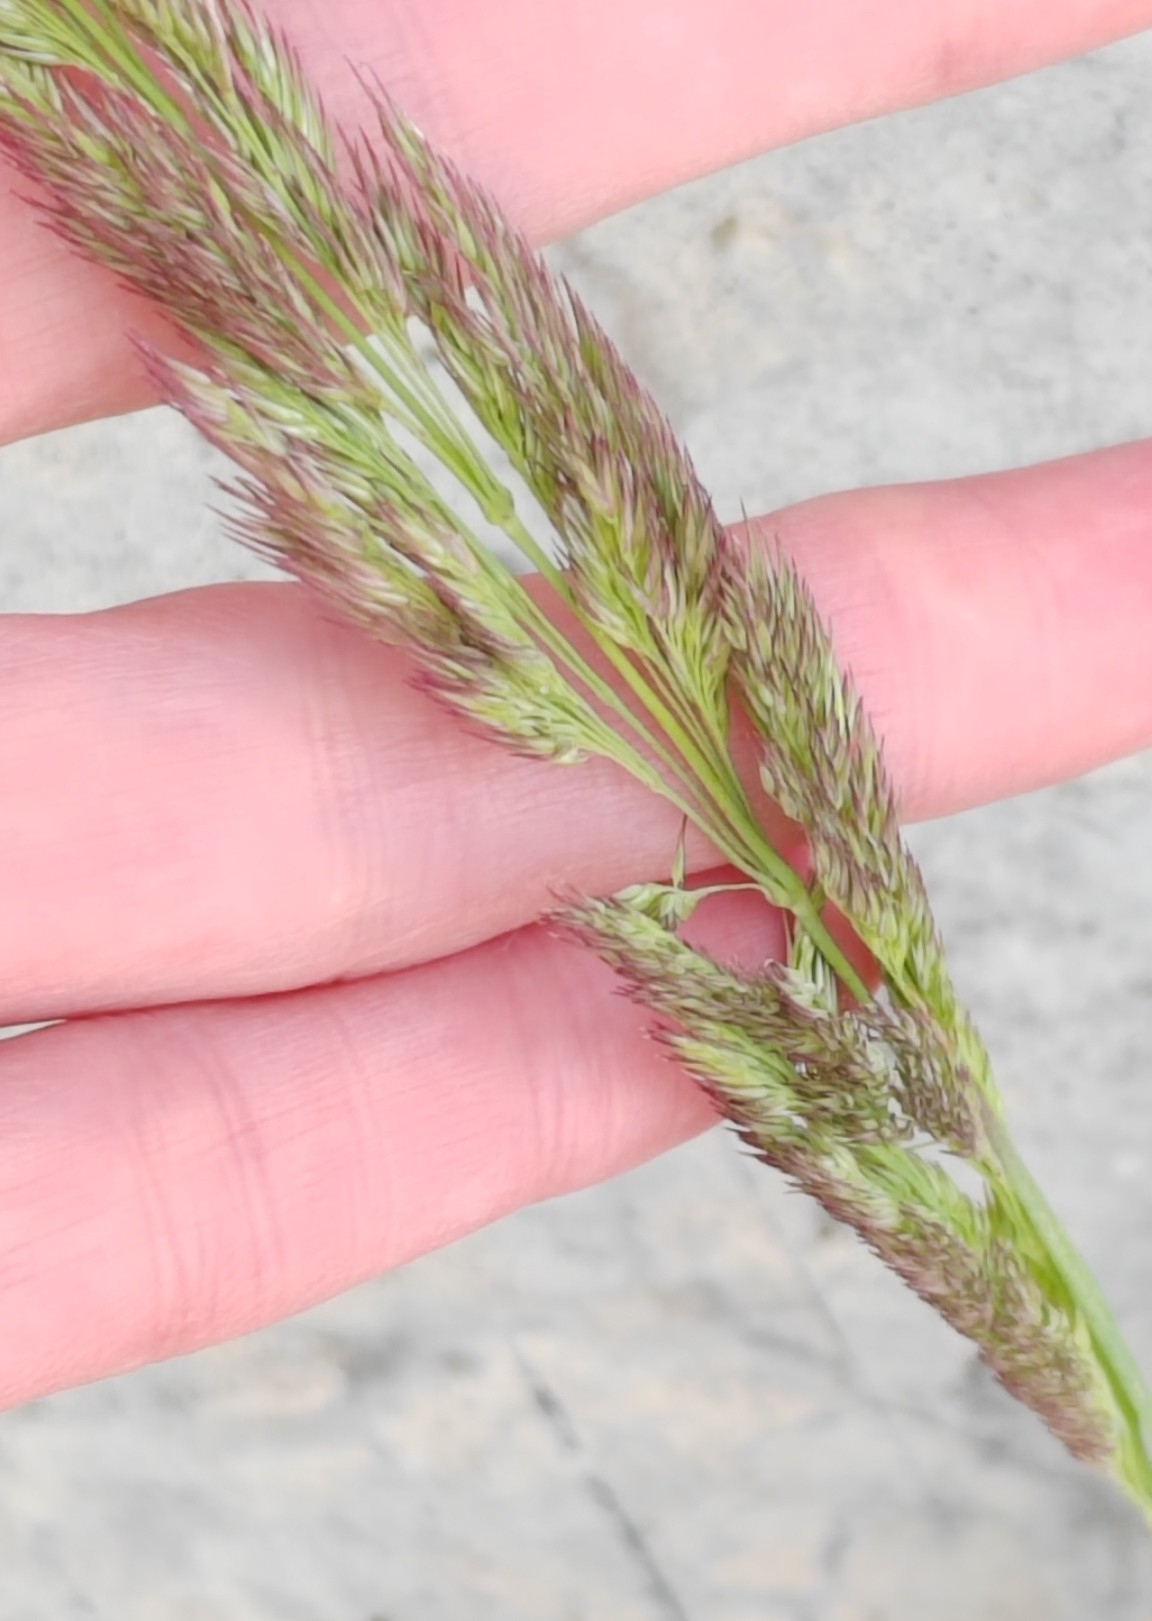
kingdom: Plantae
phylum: Tracheophyta
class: Liliopsida
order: Poales
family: Poaceae
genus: Calamagrostis
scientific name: Calamagrostis epigejos
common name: Wood small-reed
